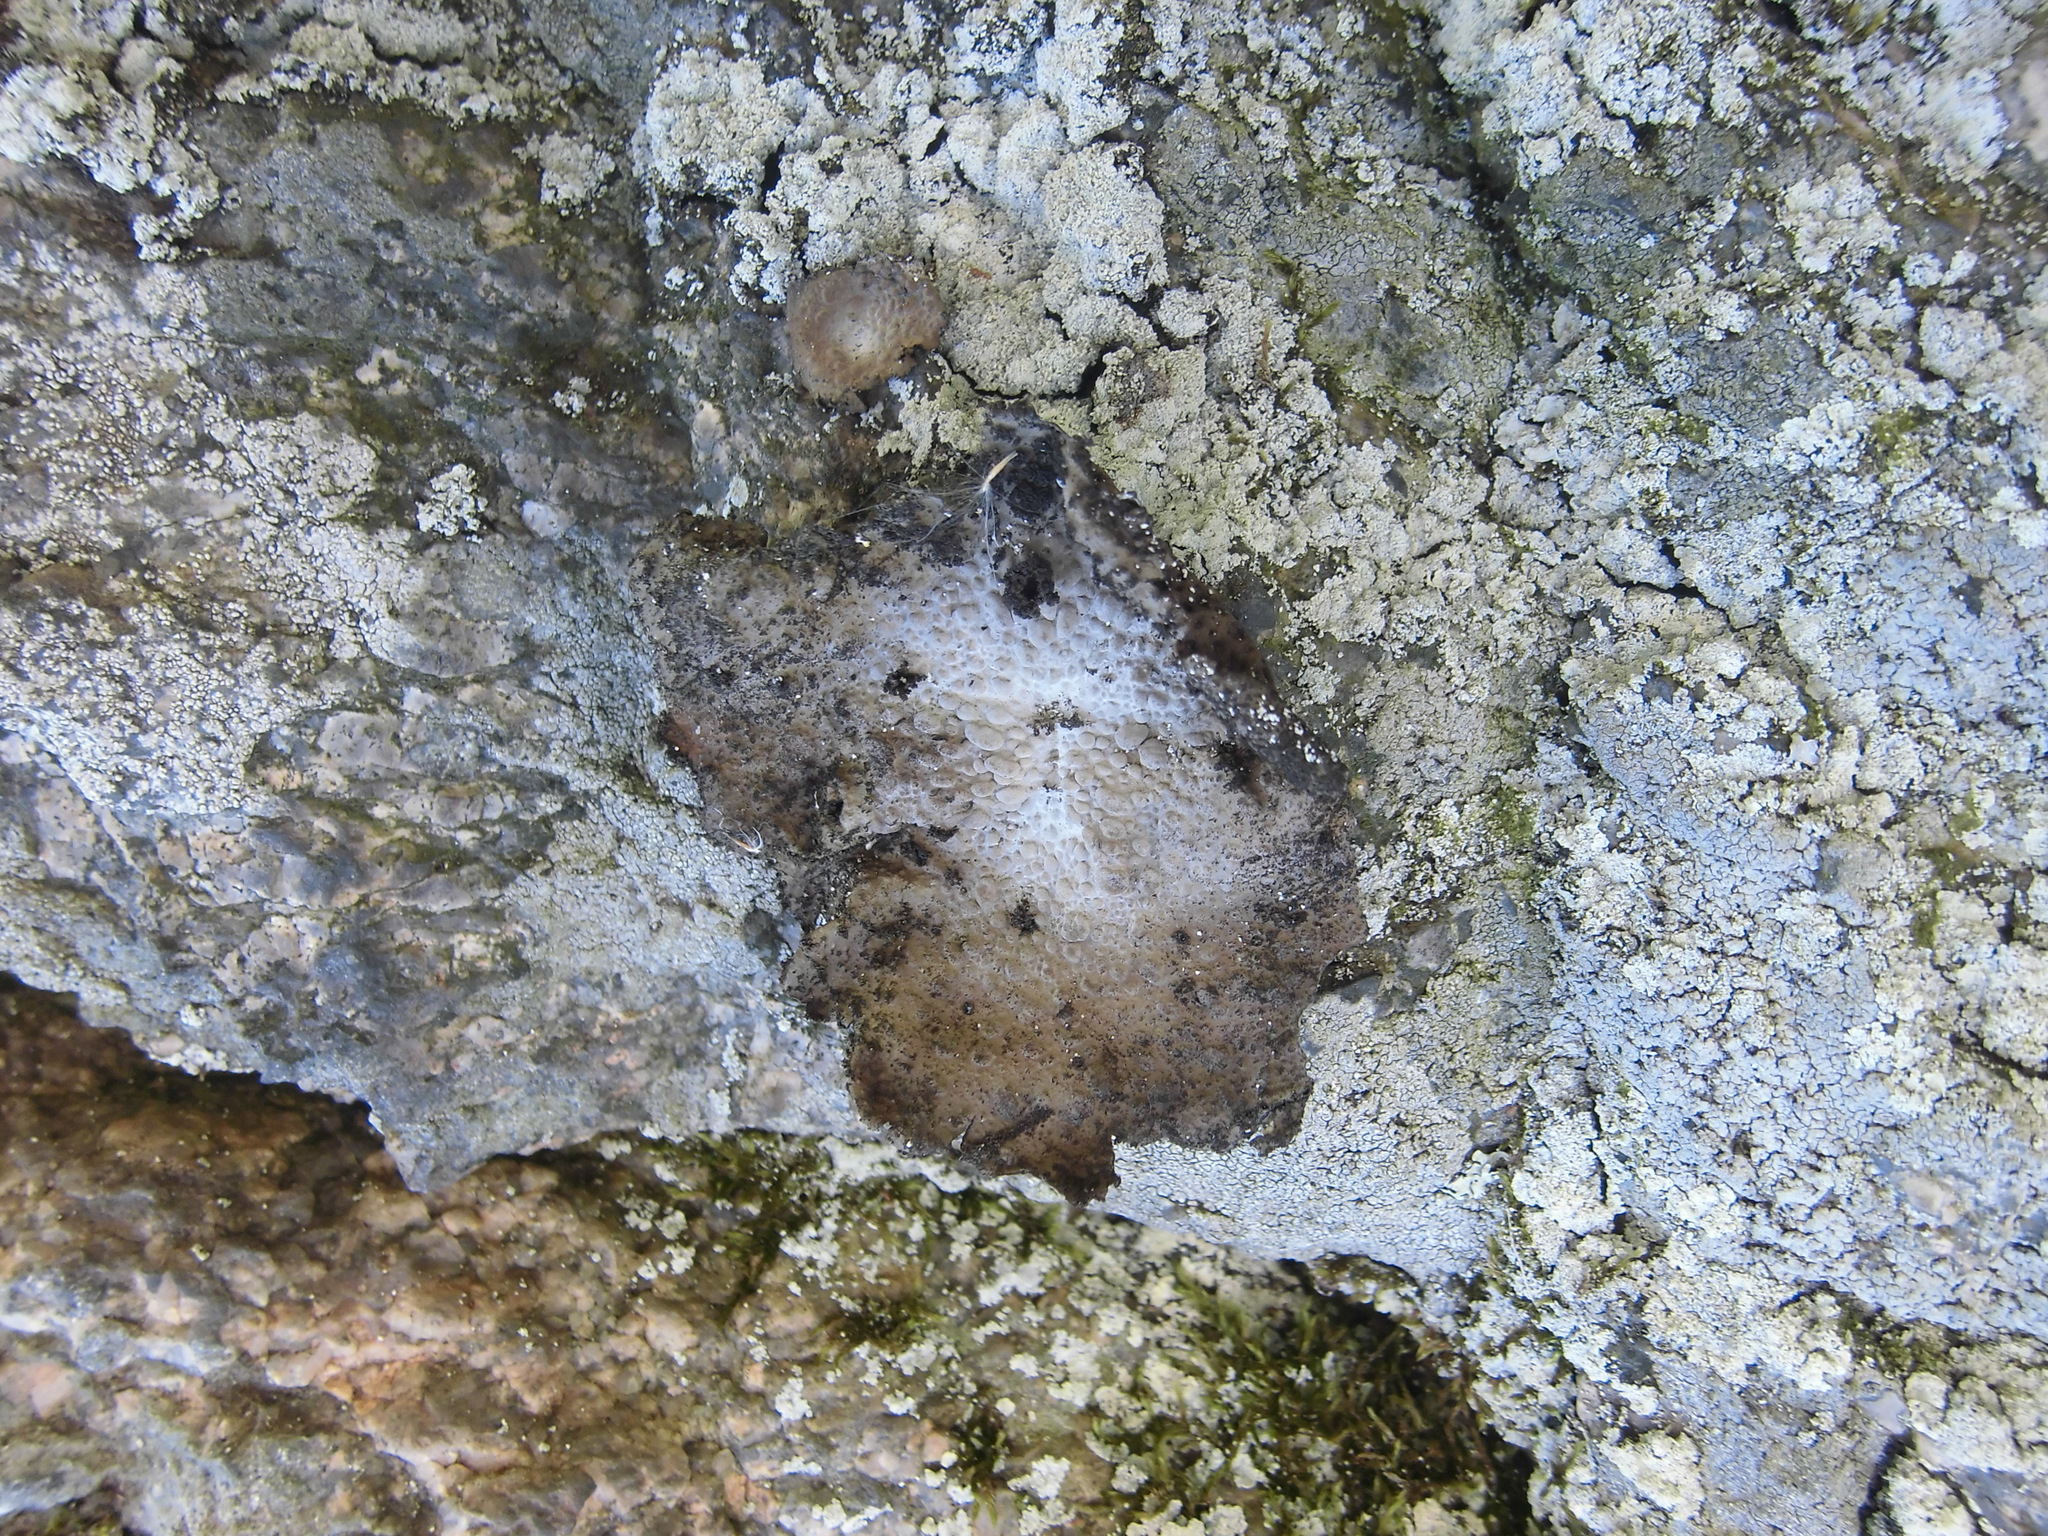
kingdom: Fungi
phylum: Ascomycota
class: Lecanoromycetes
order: Umbilicariales
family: Umbilicariaceae
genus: Lasallia
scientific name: Lasallia pustulata
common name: Blistered toadskin lichen
